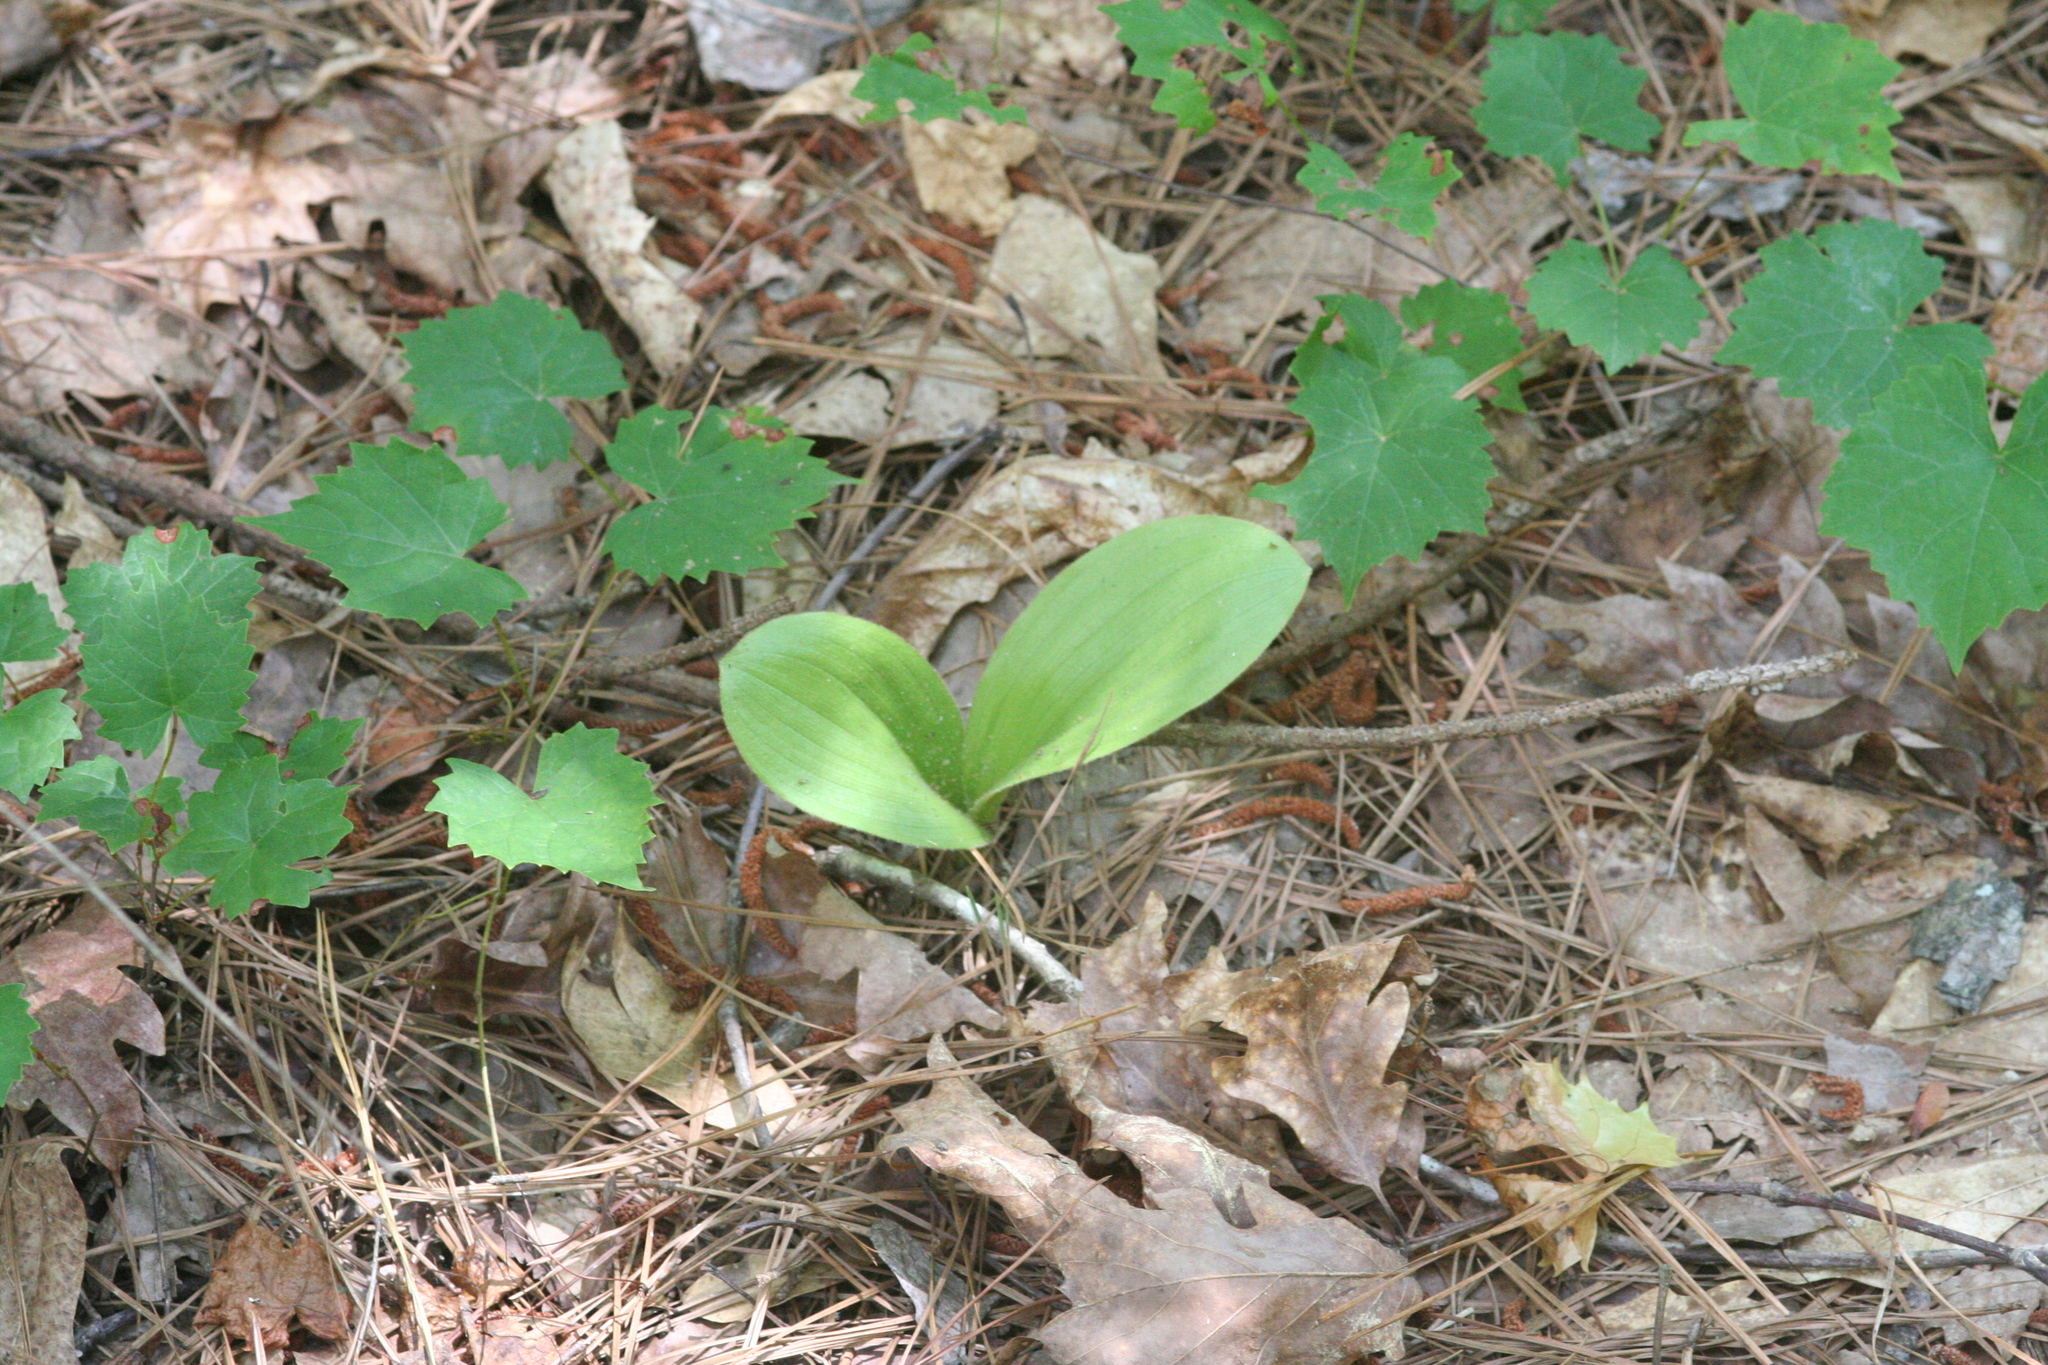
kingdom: Plantae
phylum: Tracheophyta
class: Liliopsida
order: Asparagales
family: Orchidaceae
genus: Cypripedium
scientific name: Cypripedium acaule
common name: Pink lady's-slipper
